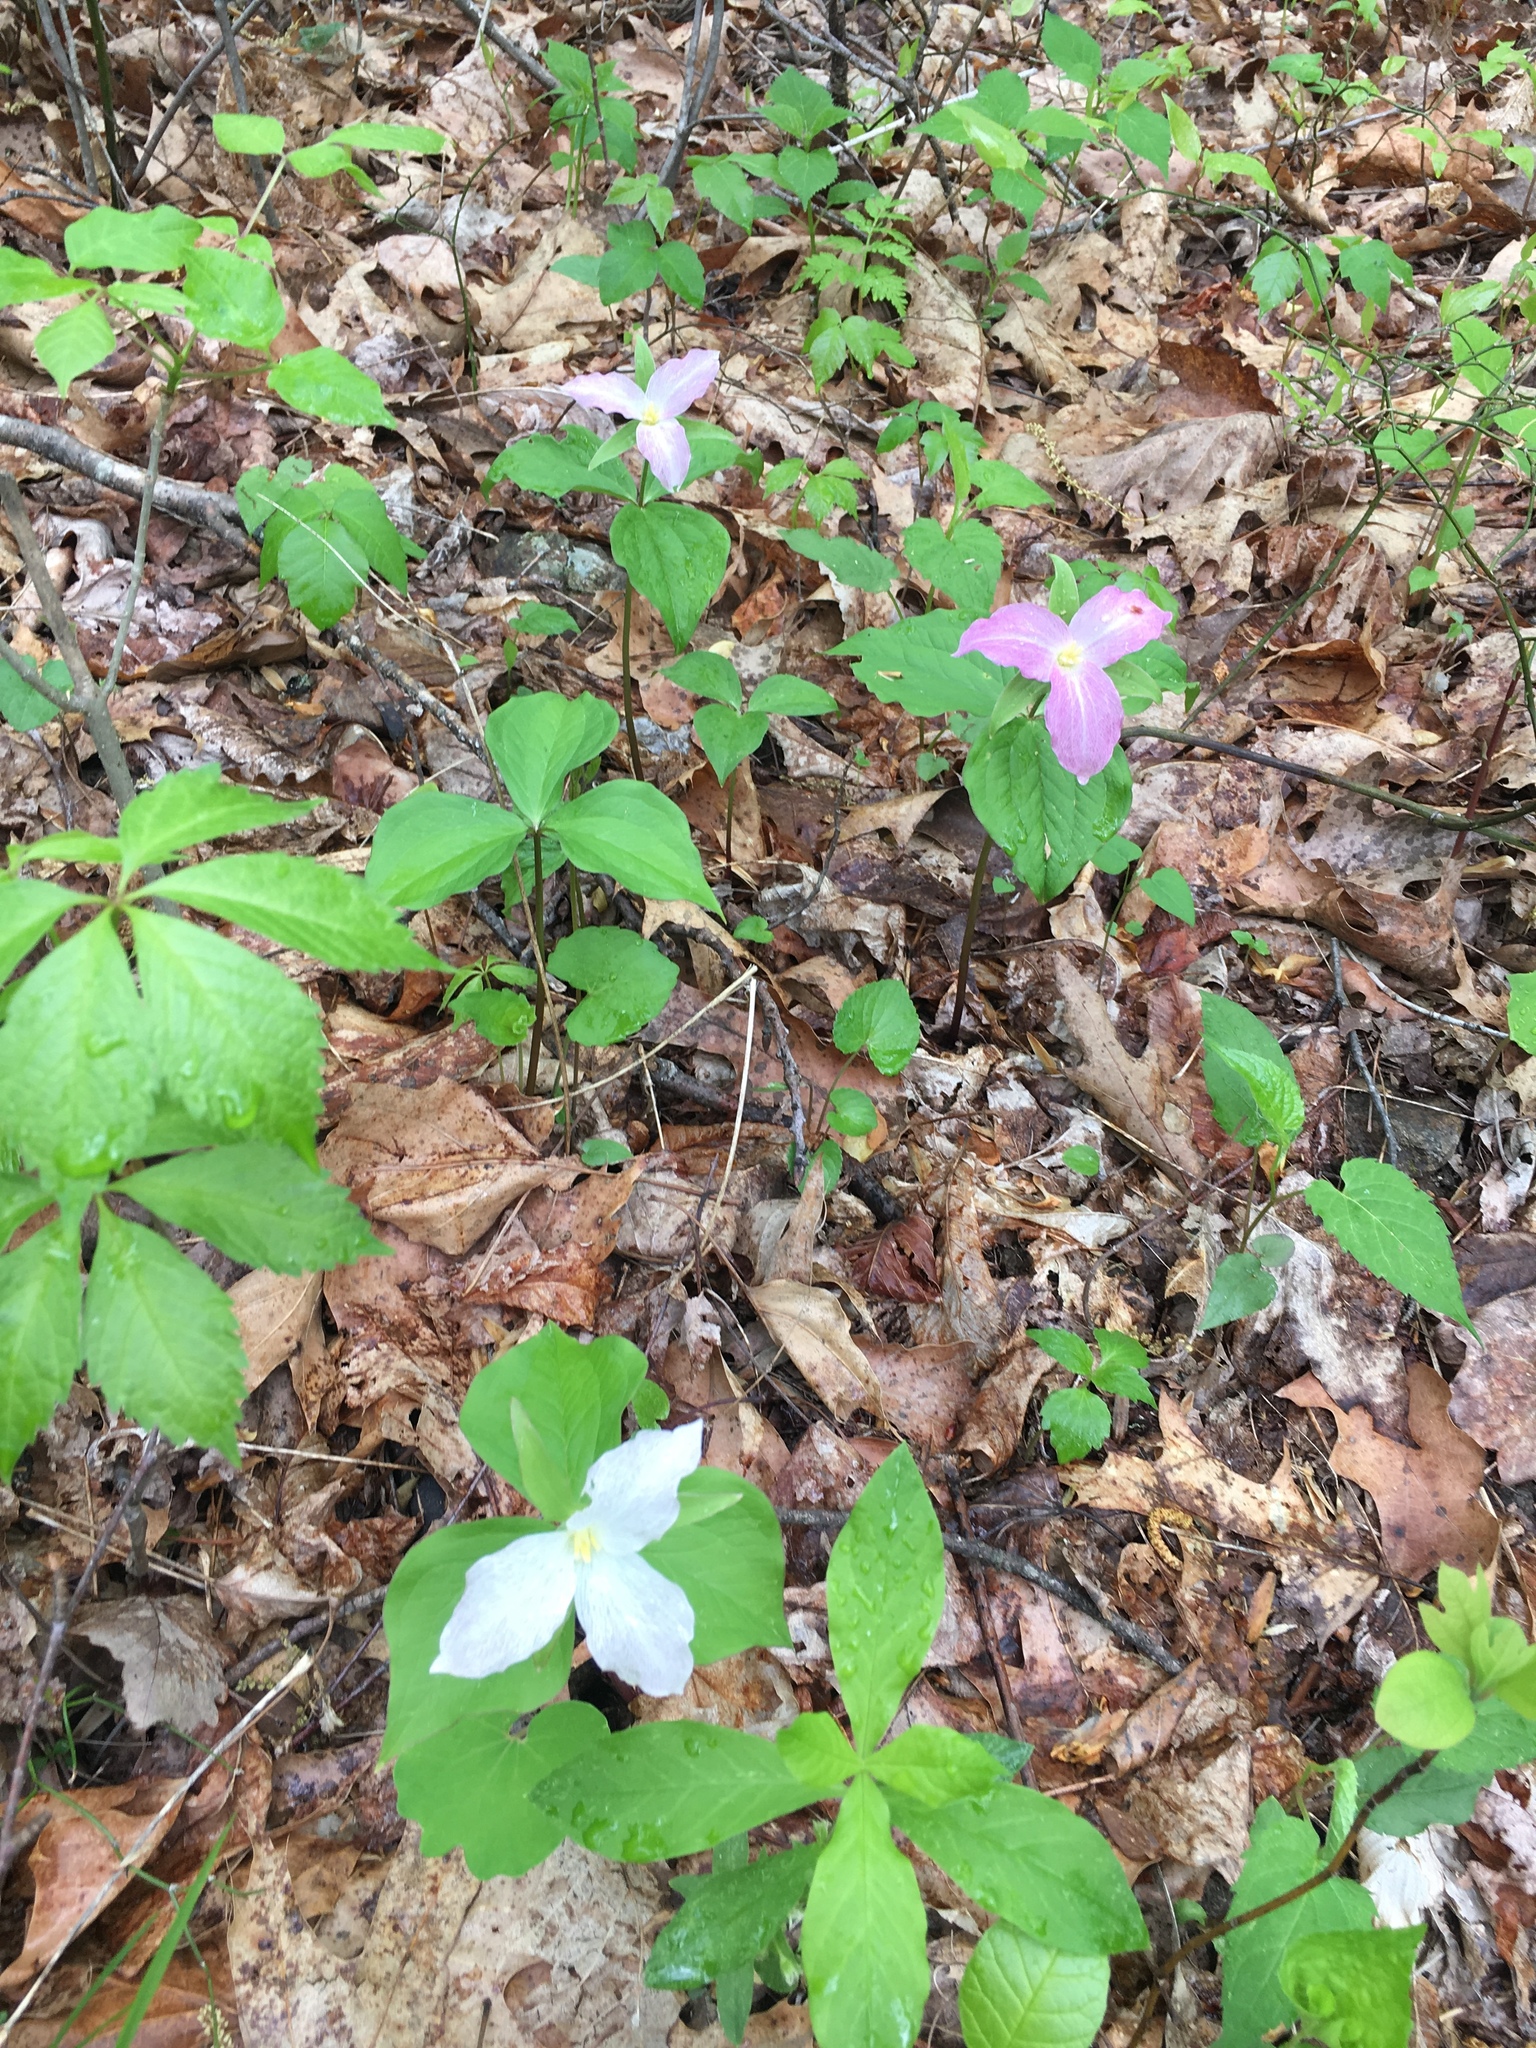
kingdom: Plantae
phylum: Tracheophyta
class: Liliopsida
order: Liliales
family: Melanthiaceae
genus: Trillium
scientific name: Trillium grandiflorum
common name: Great white trillium
